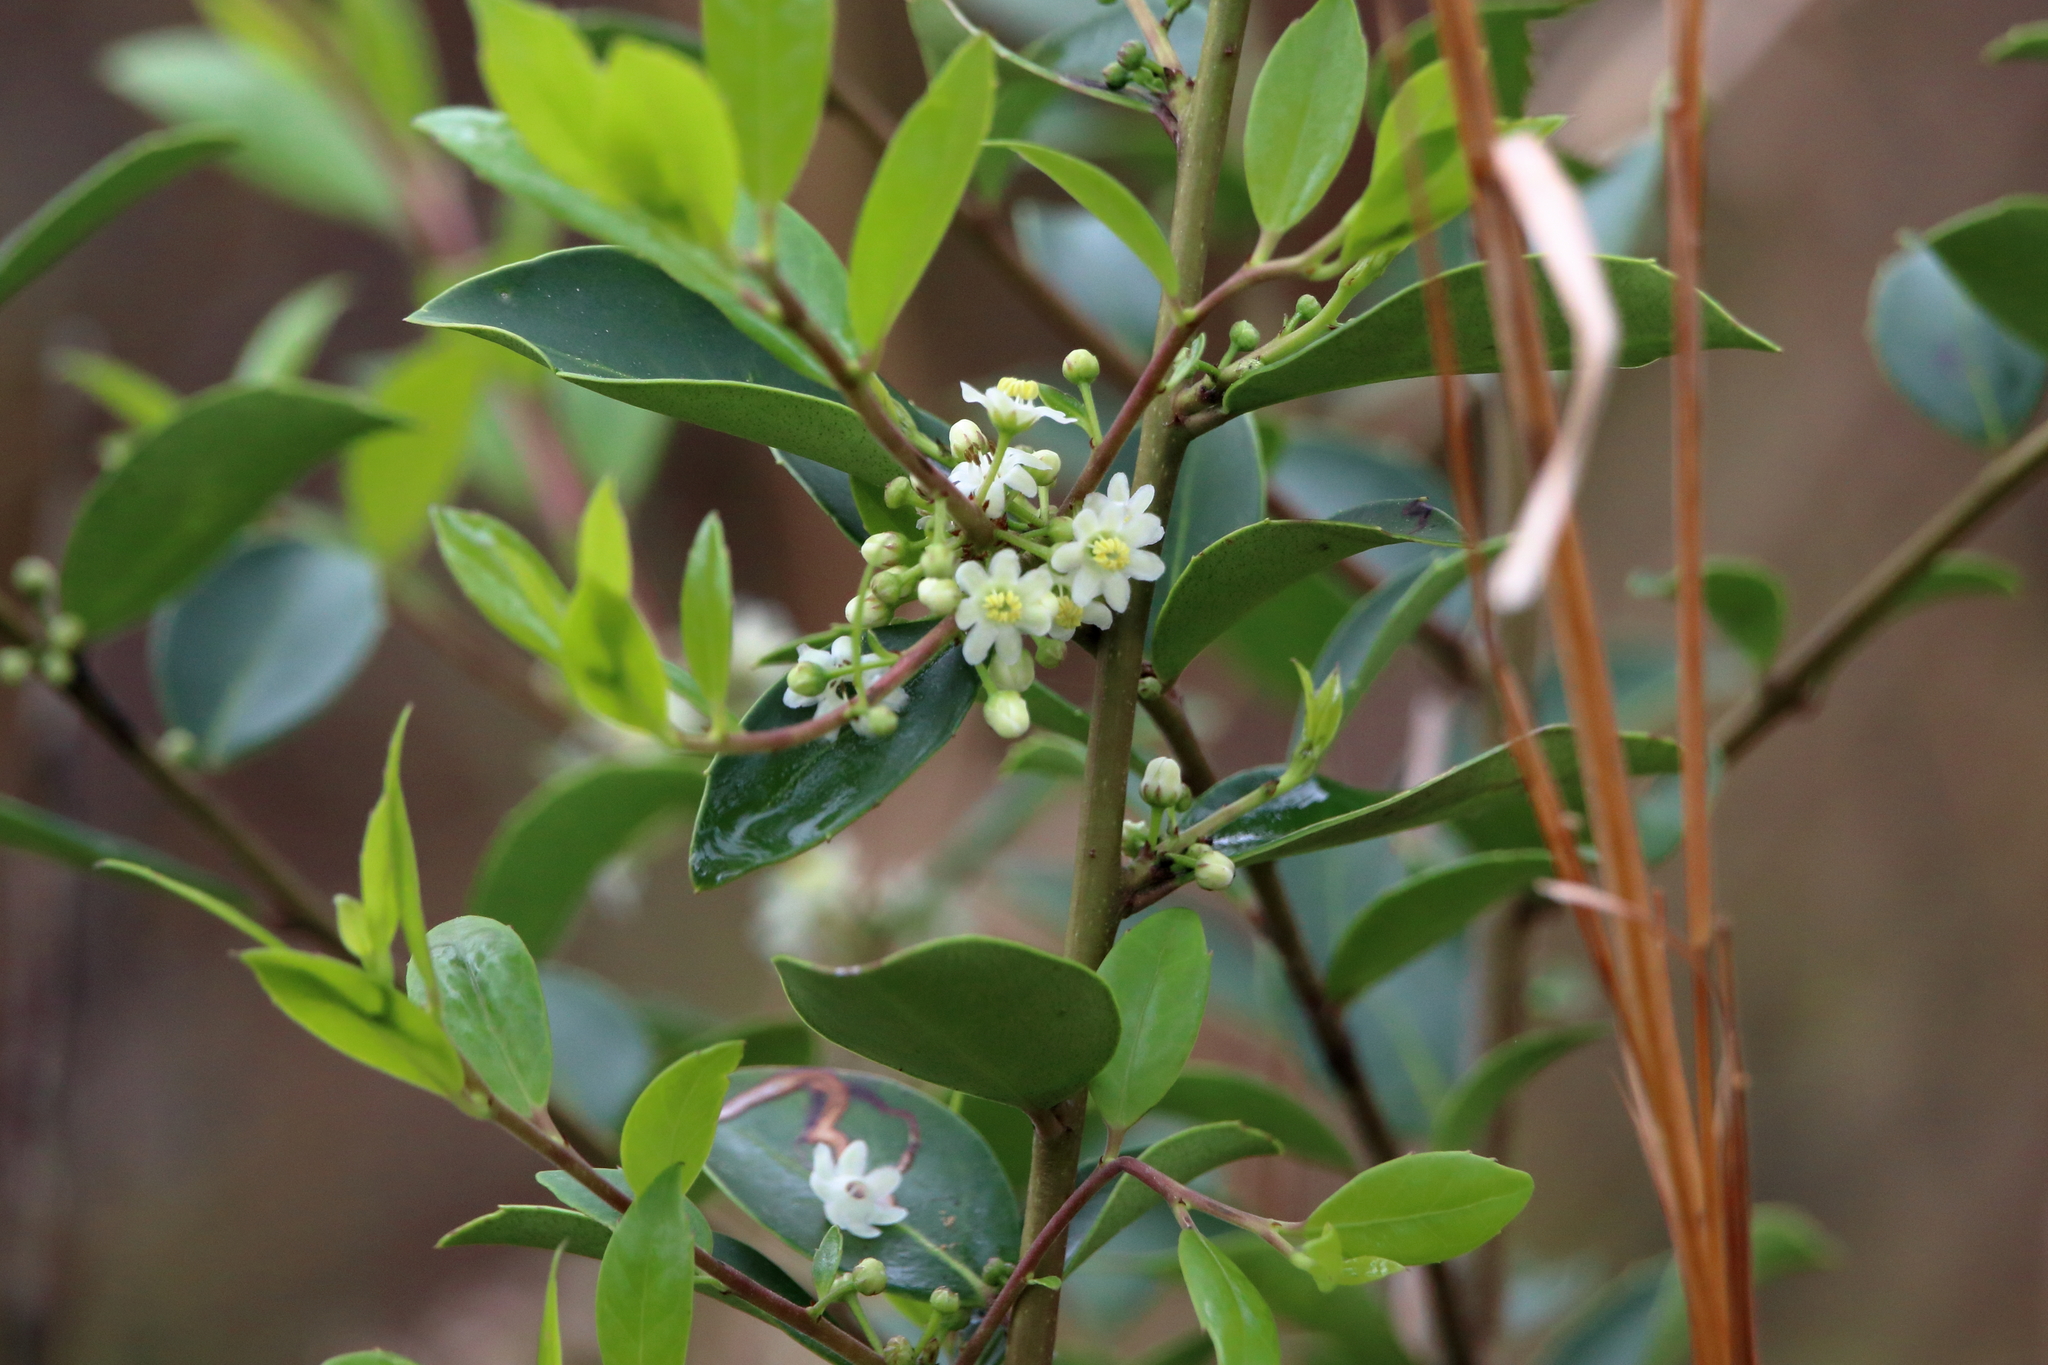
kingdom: Plantae
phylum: Tracheophyta
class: Magnoliopsida
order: Aquifoliales
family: Aquifoliaceae
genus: Ilex
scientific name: Ilex coriacea
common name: Sweet gallberry
